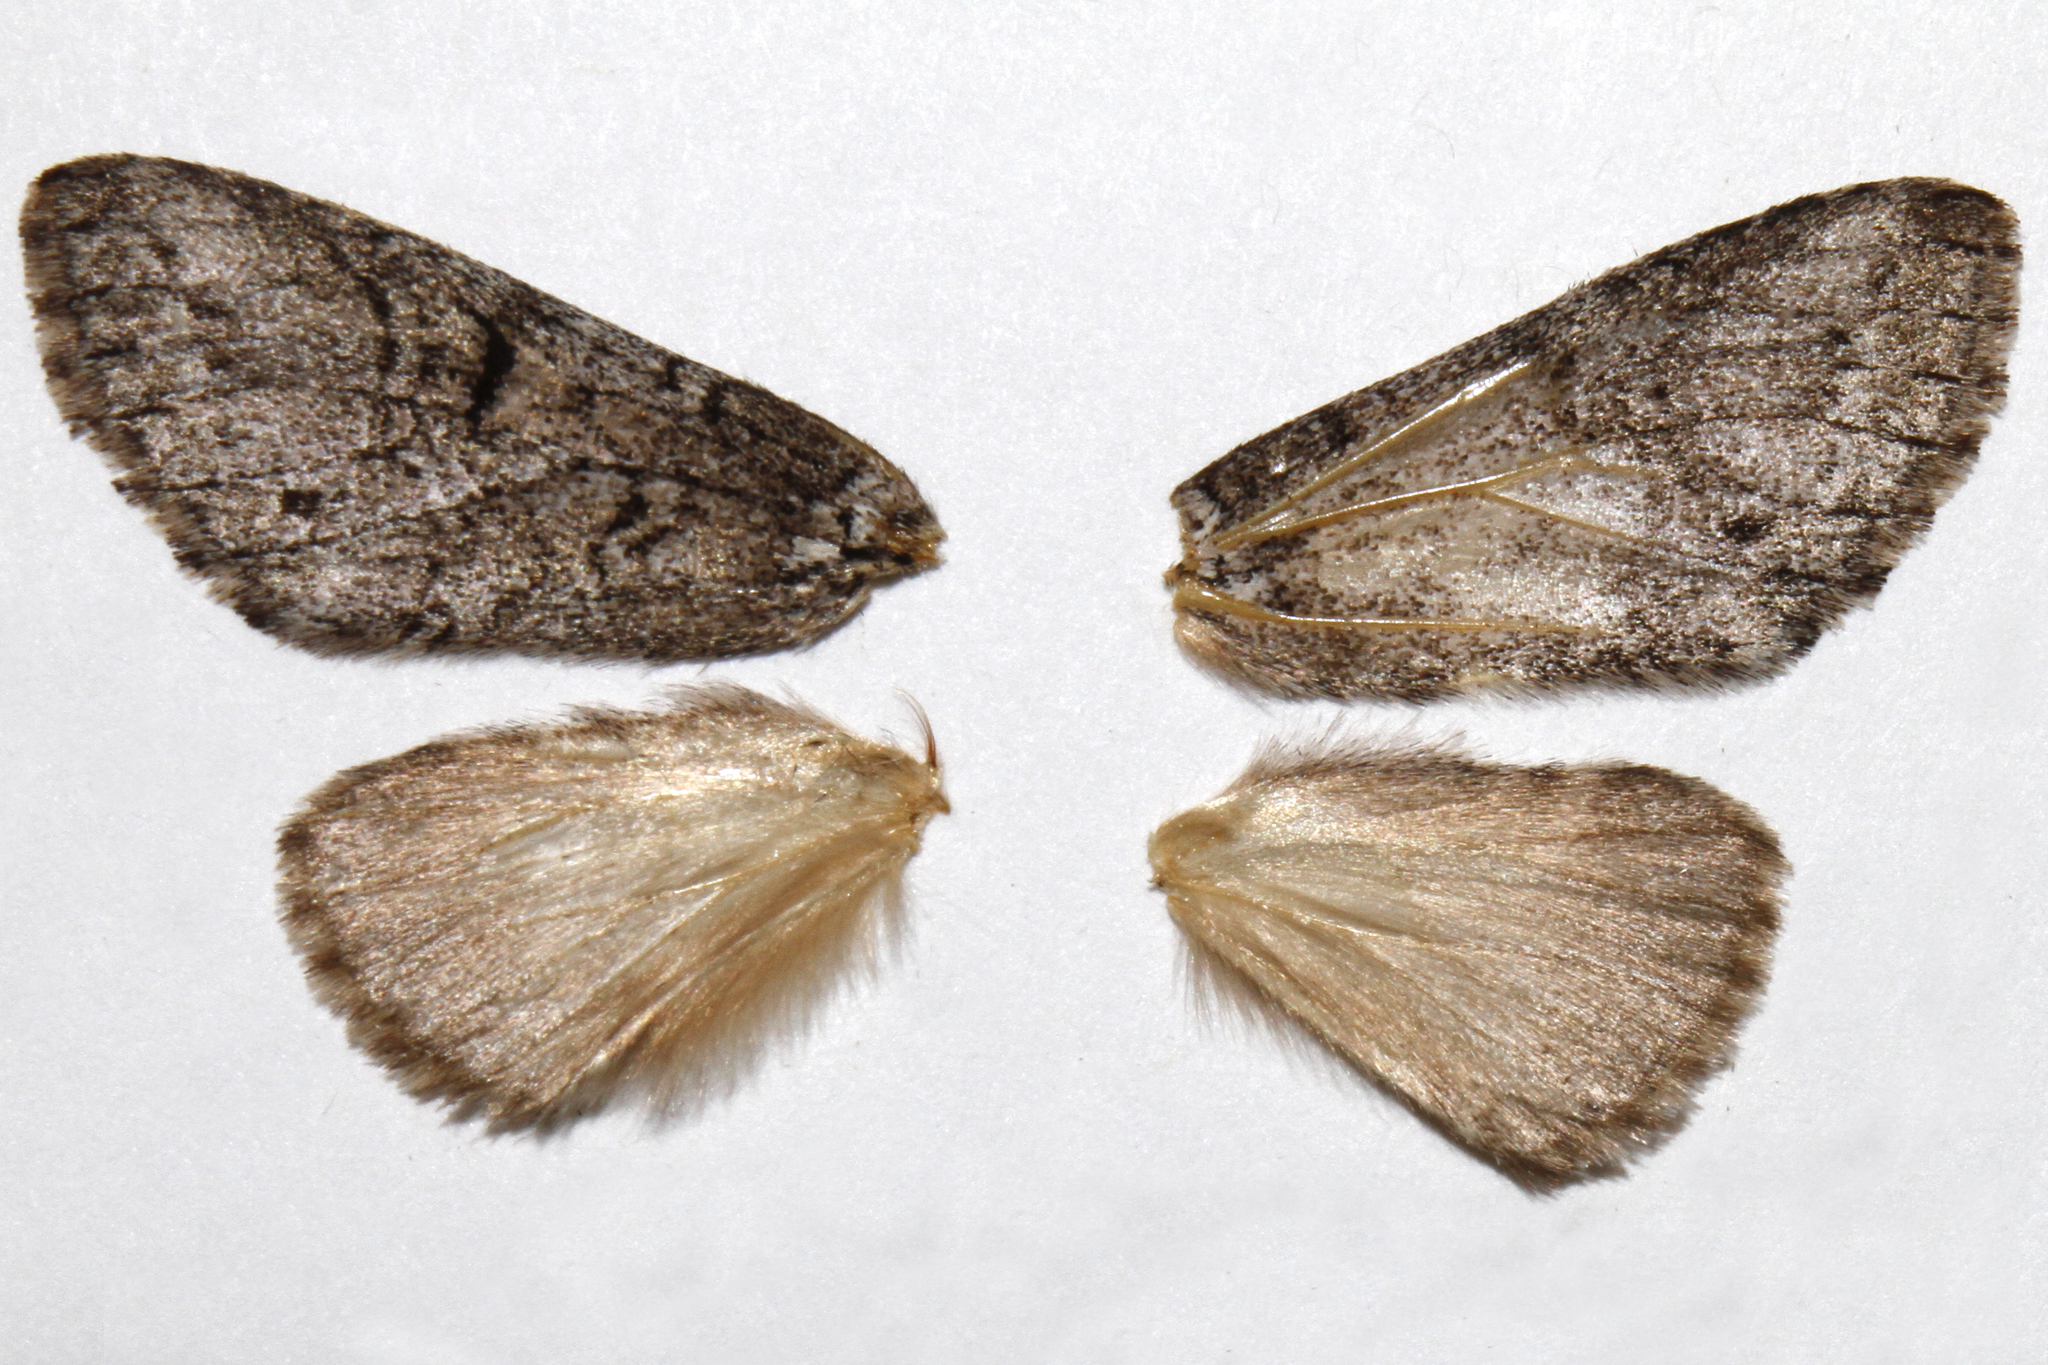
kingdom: Animalia
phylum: Arthropoda
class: Insecta
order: Lepidoptera
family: Notodontidae
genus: Macrurocampa
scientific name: Macrurocampa
